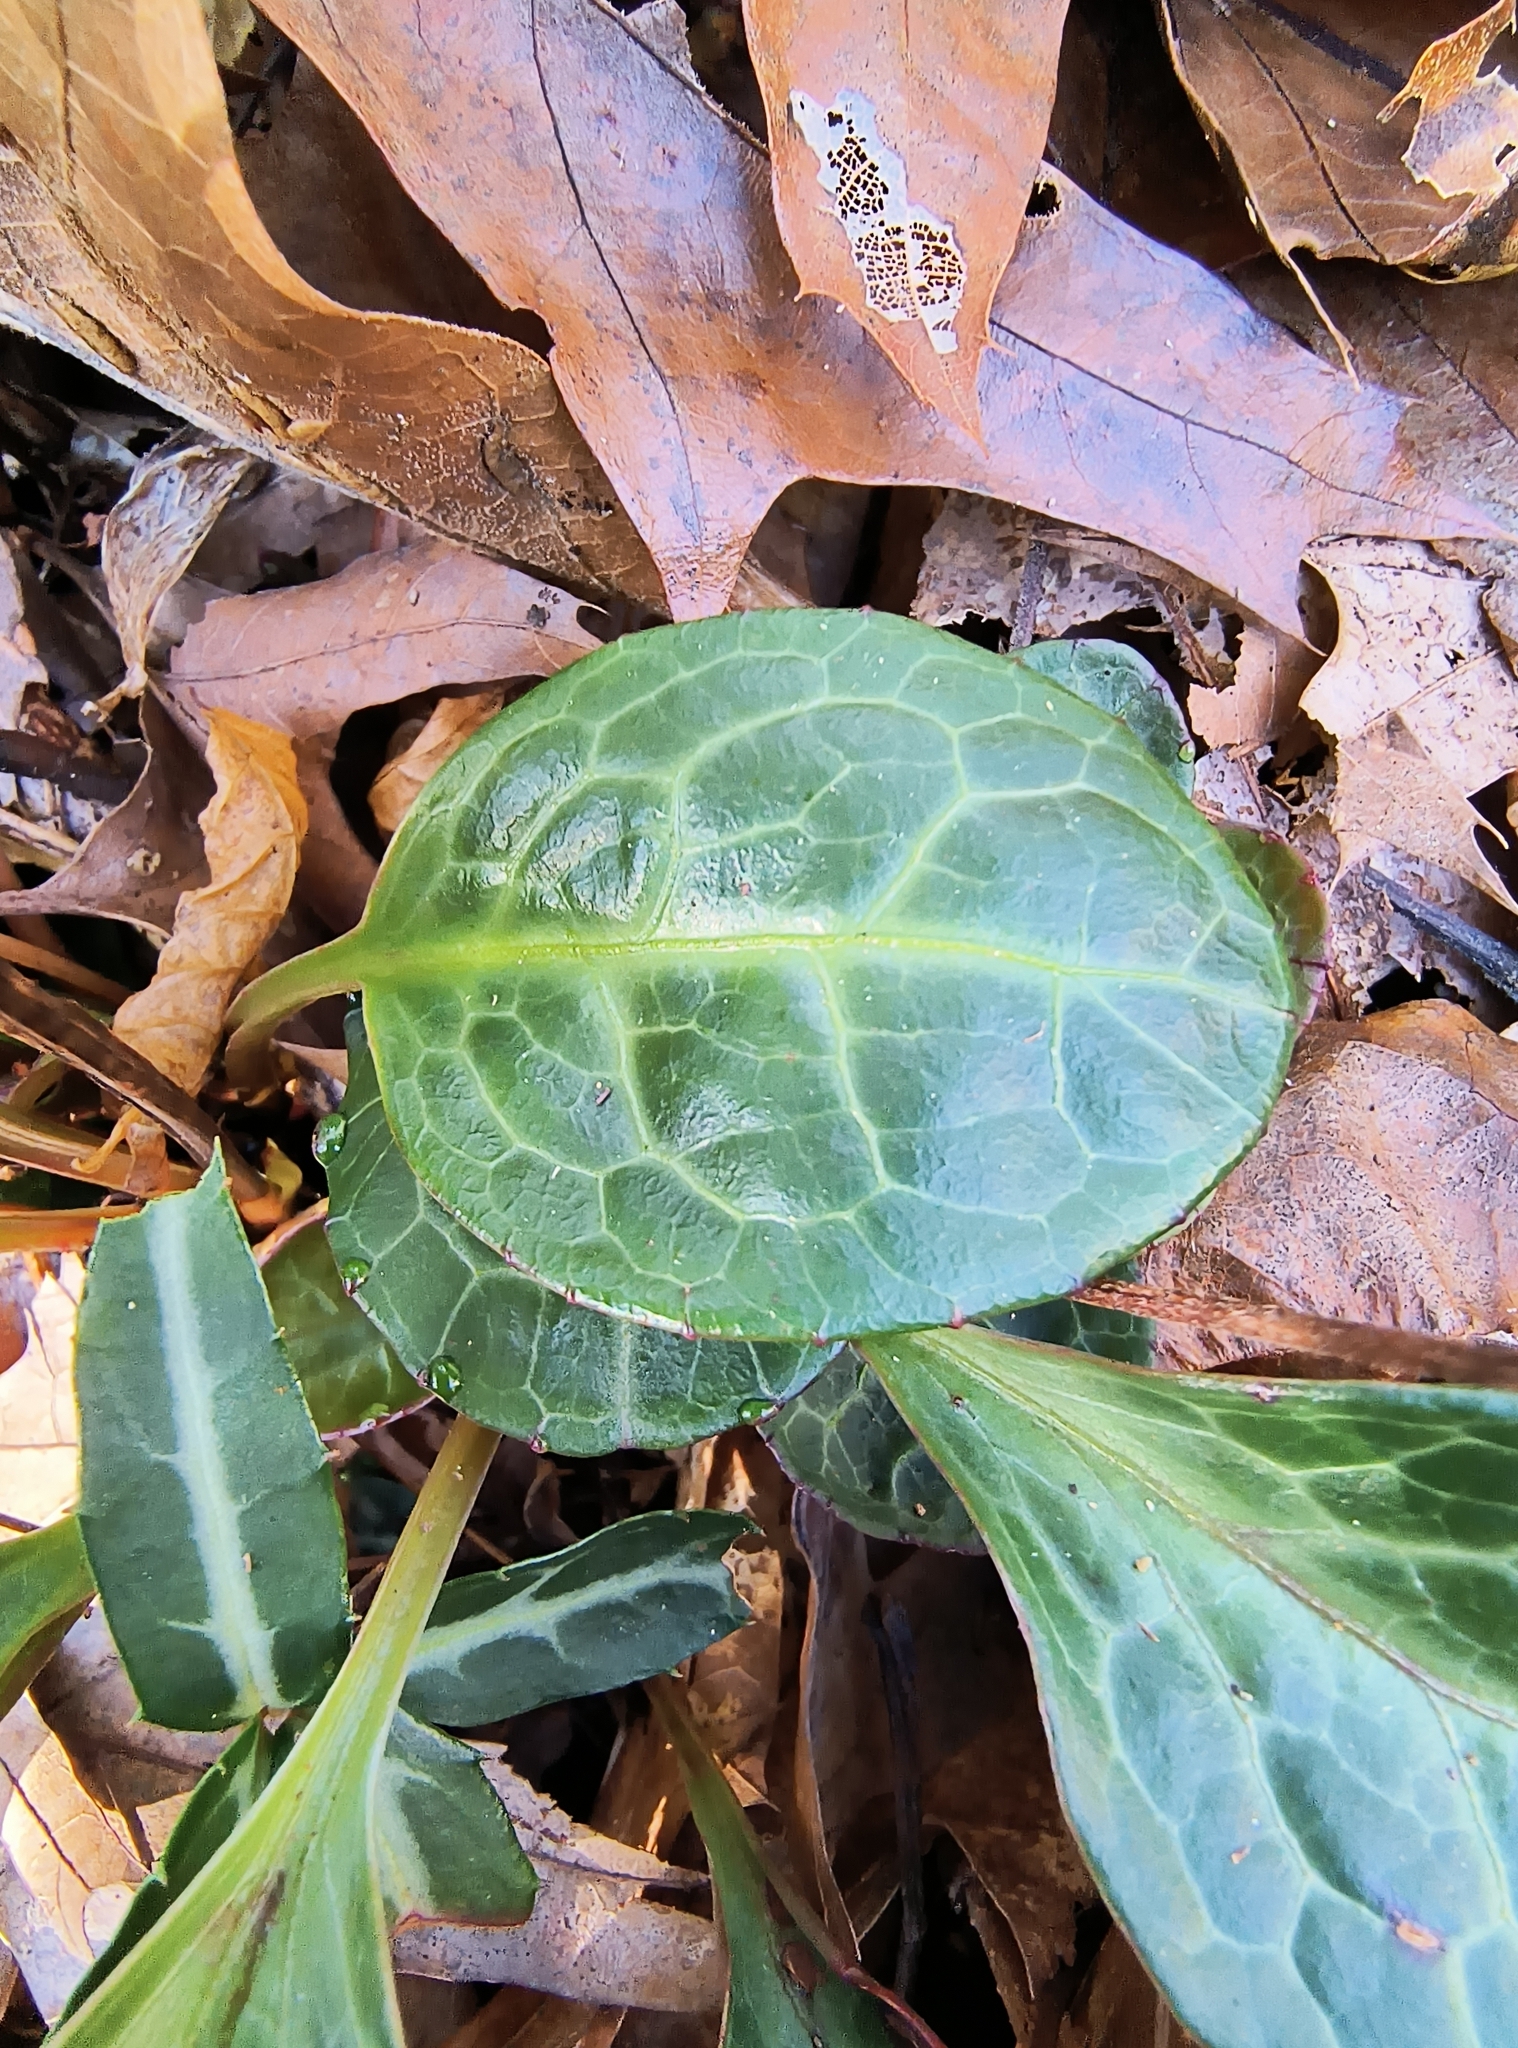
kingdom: Plantae
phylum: Tracheophyta
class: Magnoliopsida
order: Ericales
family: Ericaceae
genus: Pyrola
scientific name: Pyrola americana
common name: American wintergreen
